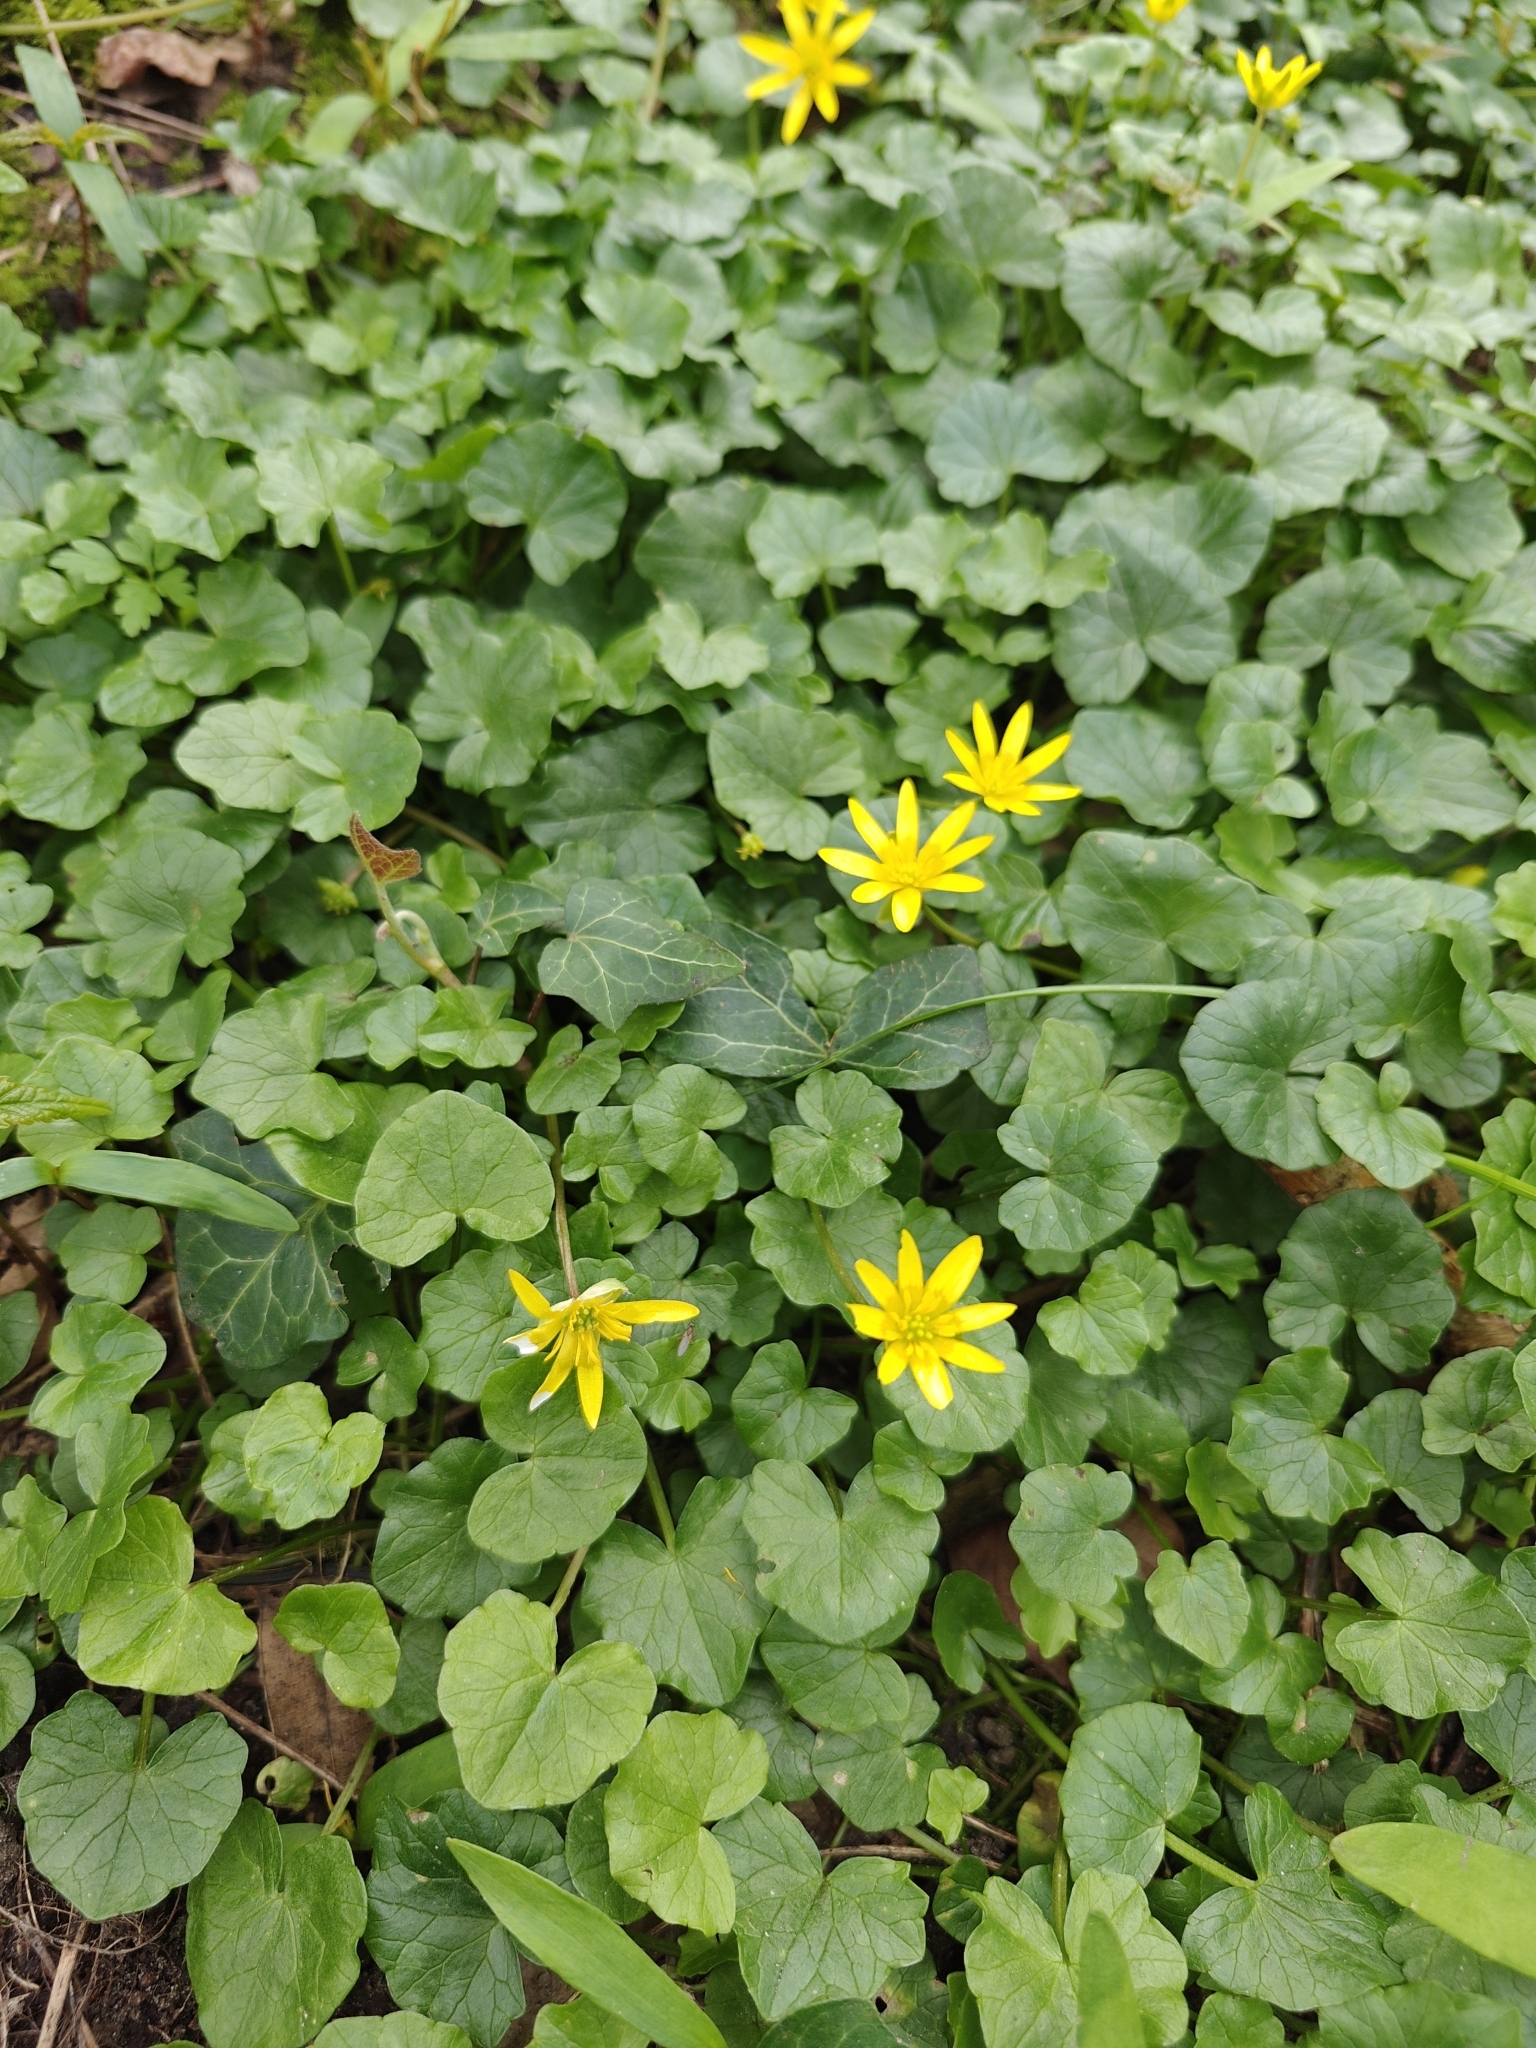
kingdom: Plantae
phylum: Tracheophyta
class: Magnoliopsida
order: Ranunculales
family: Ranunculaceae
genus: Ficaria
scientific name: Ficaria verna
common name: Lesser celandine
